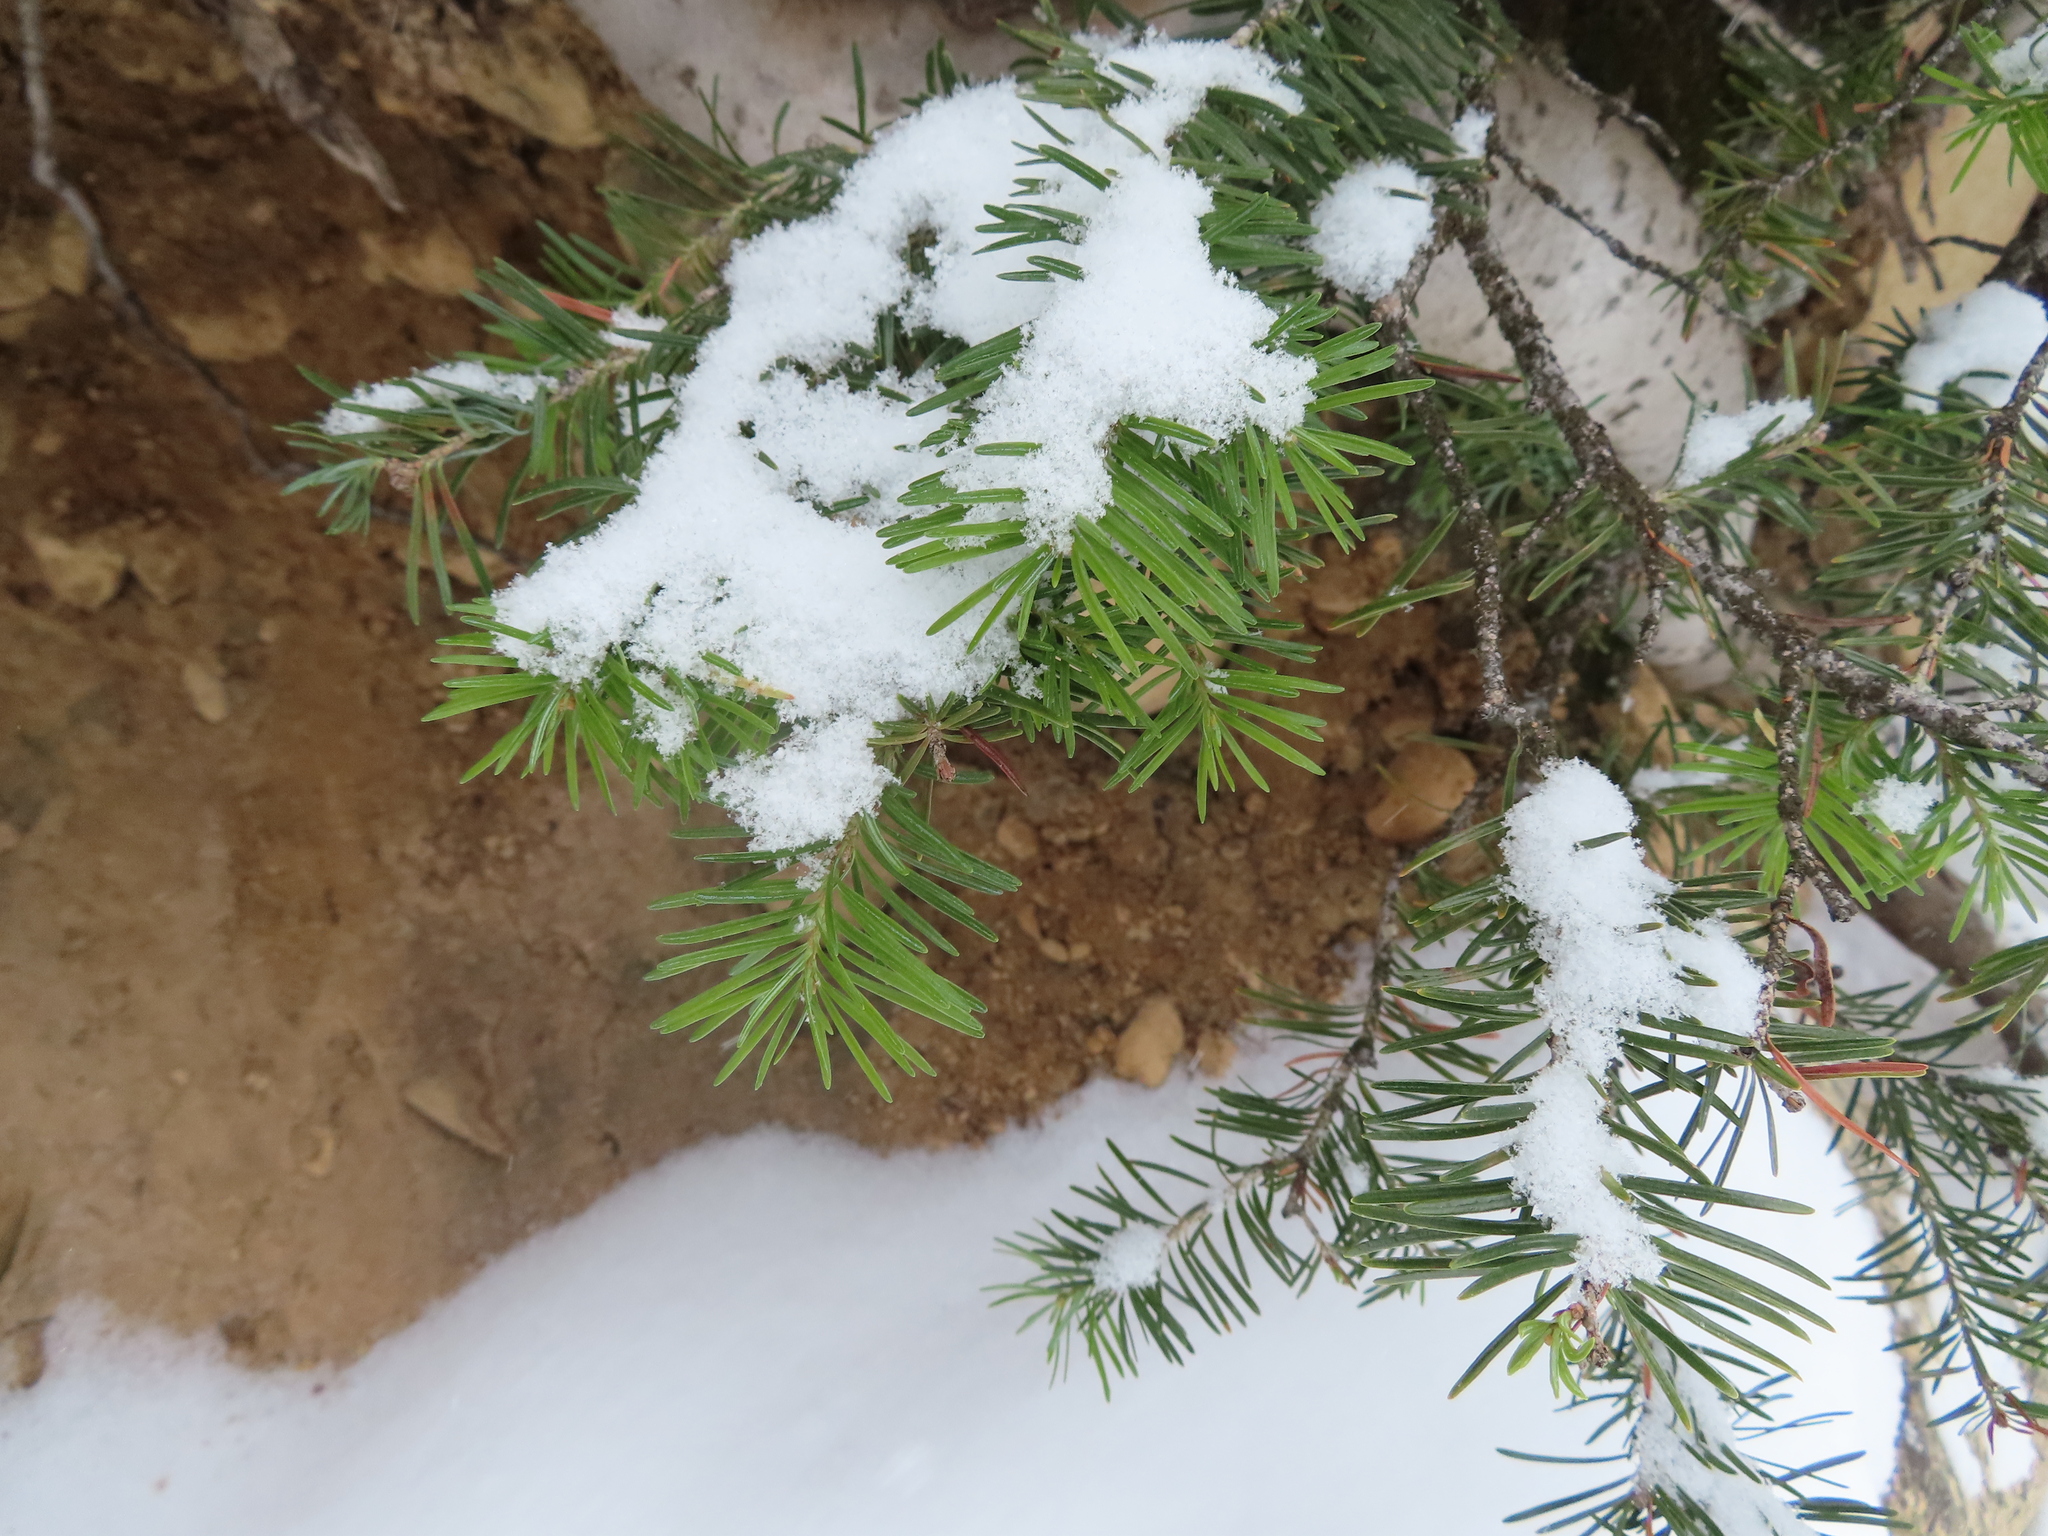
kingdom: Plantae
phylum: Tracheophyta
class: Pinopsida
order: Pinales
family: Pinaceae
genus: Abies
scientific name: Abies lasiocarpa
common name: Subalpine fir
